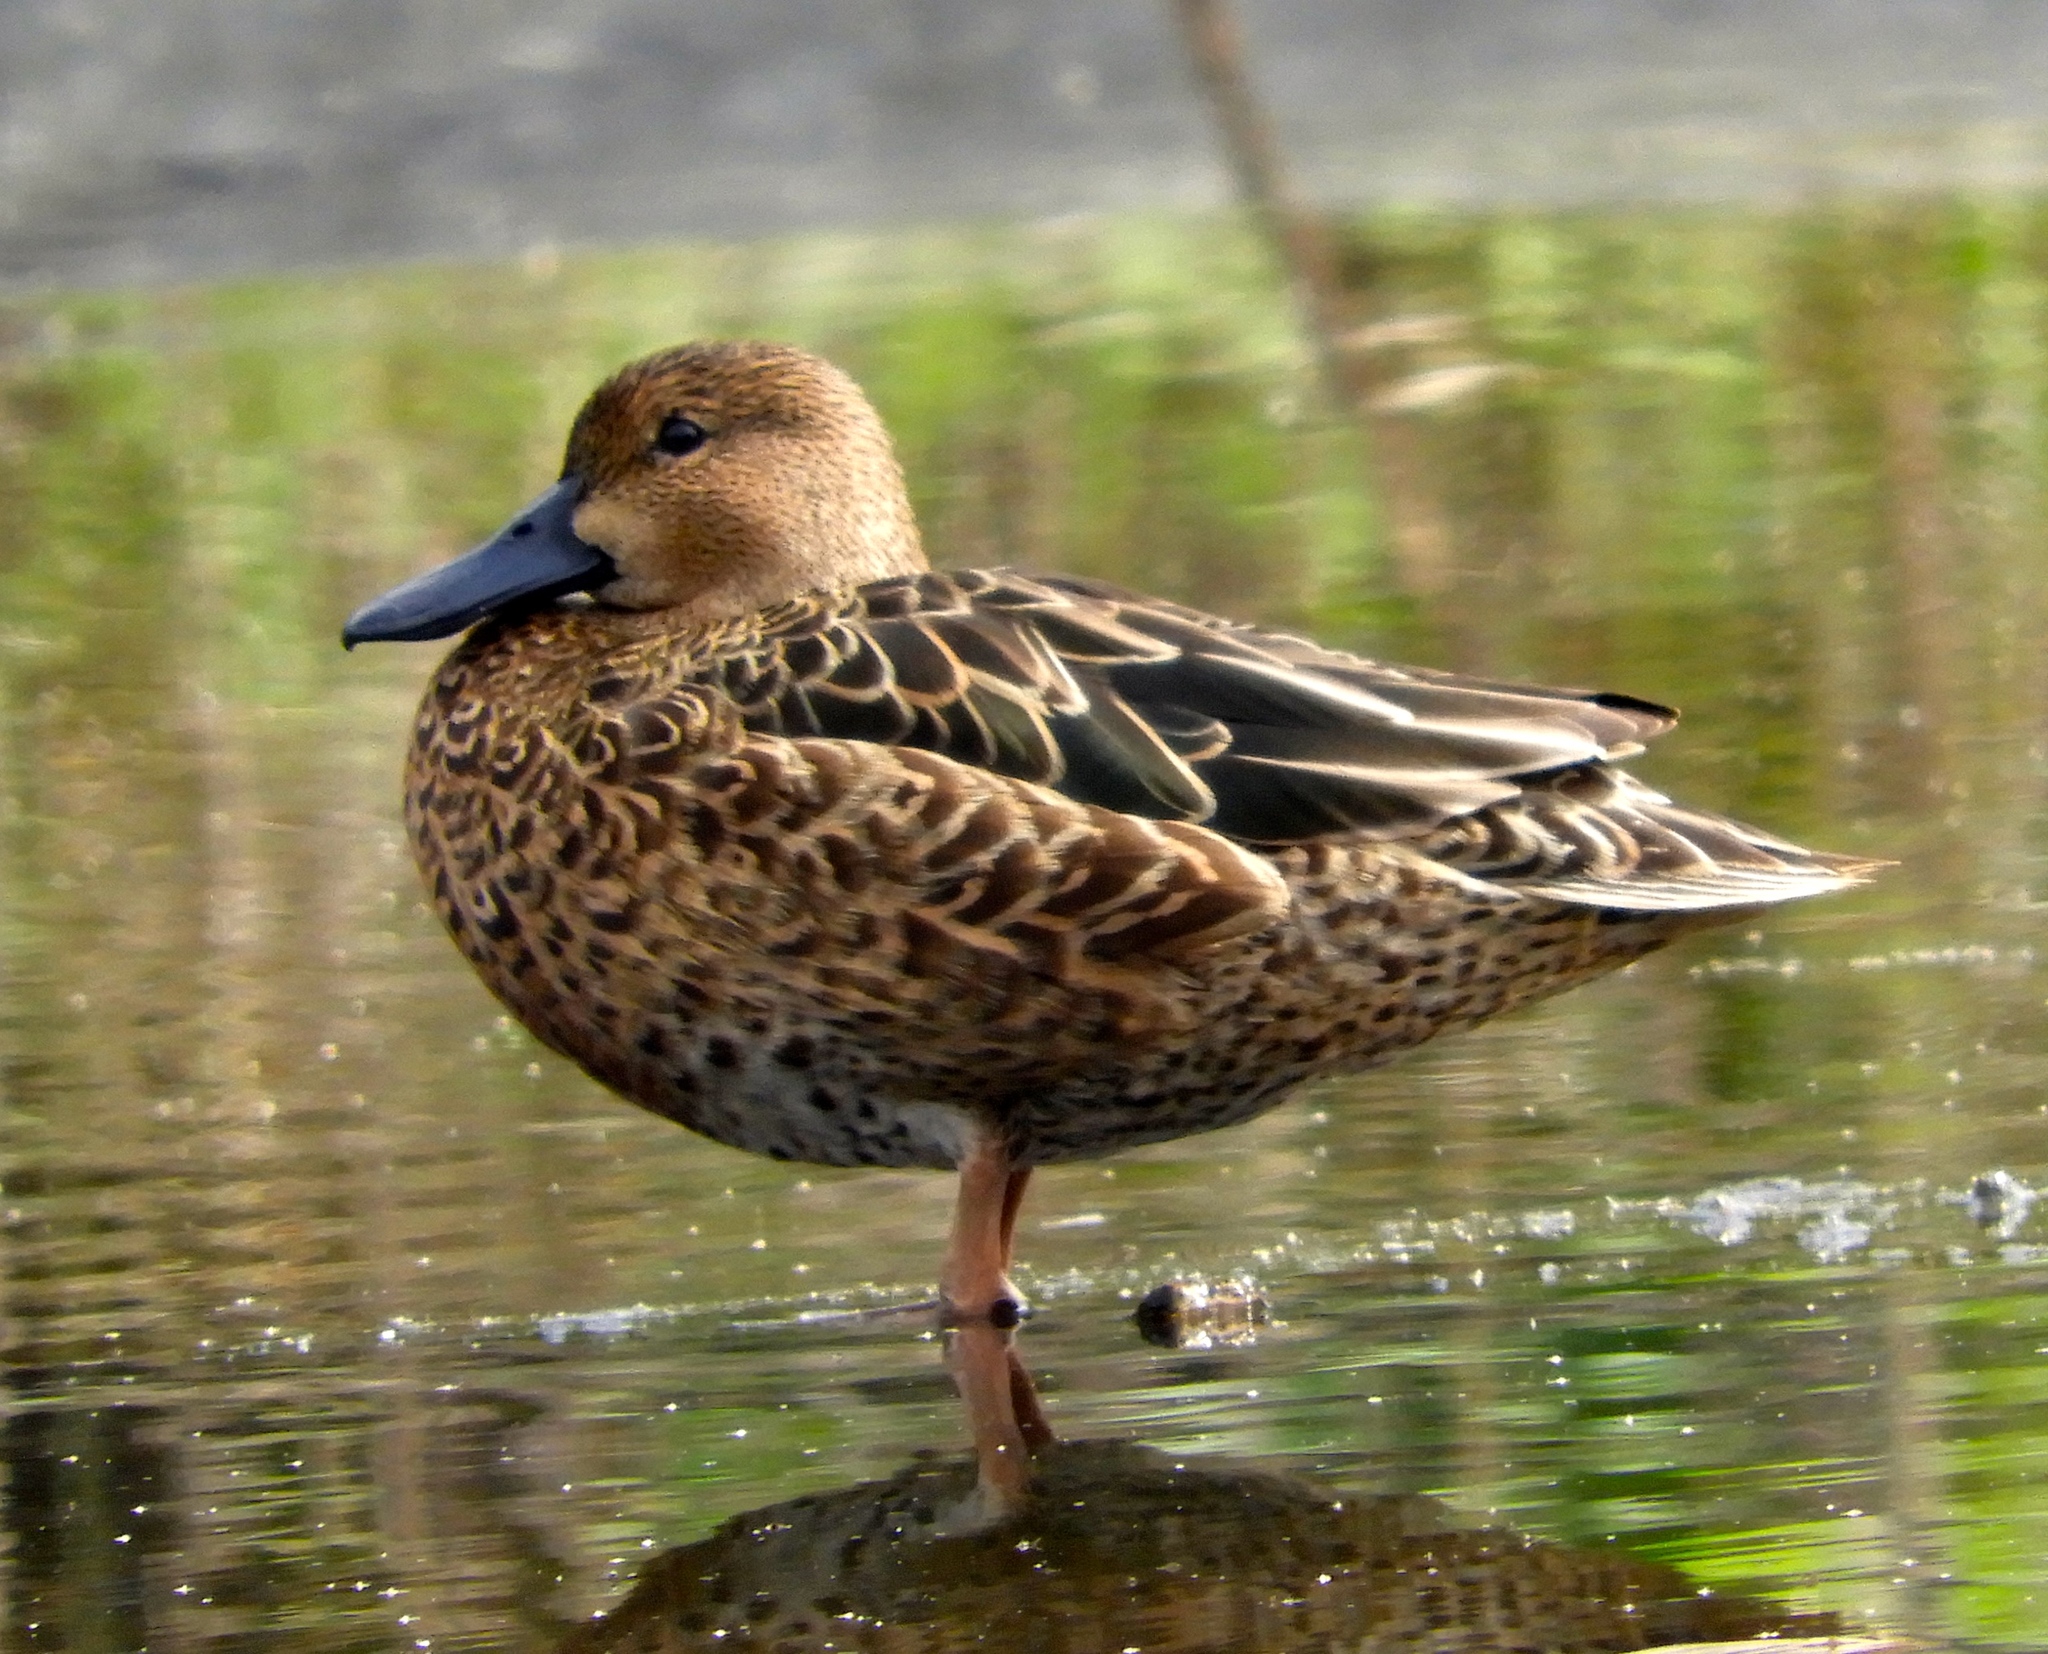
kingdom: Animalia
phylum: Chordata
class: Aves
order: Anseriformes
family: Anatidae
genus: Spatula
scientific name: Spatula discors
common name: Blue-winged teal
